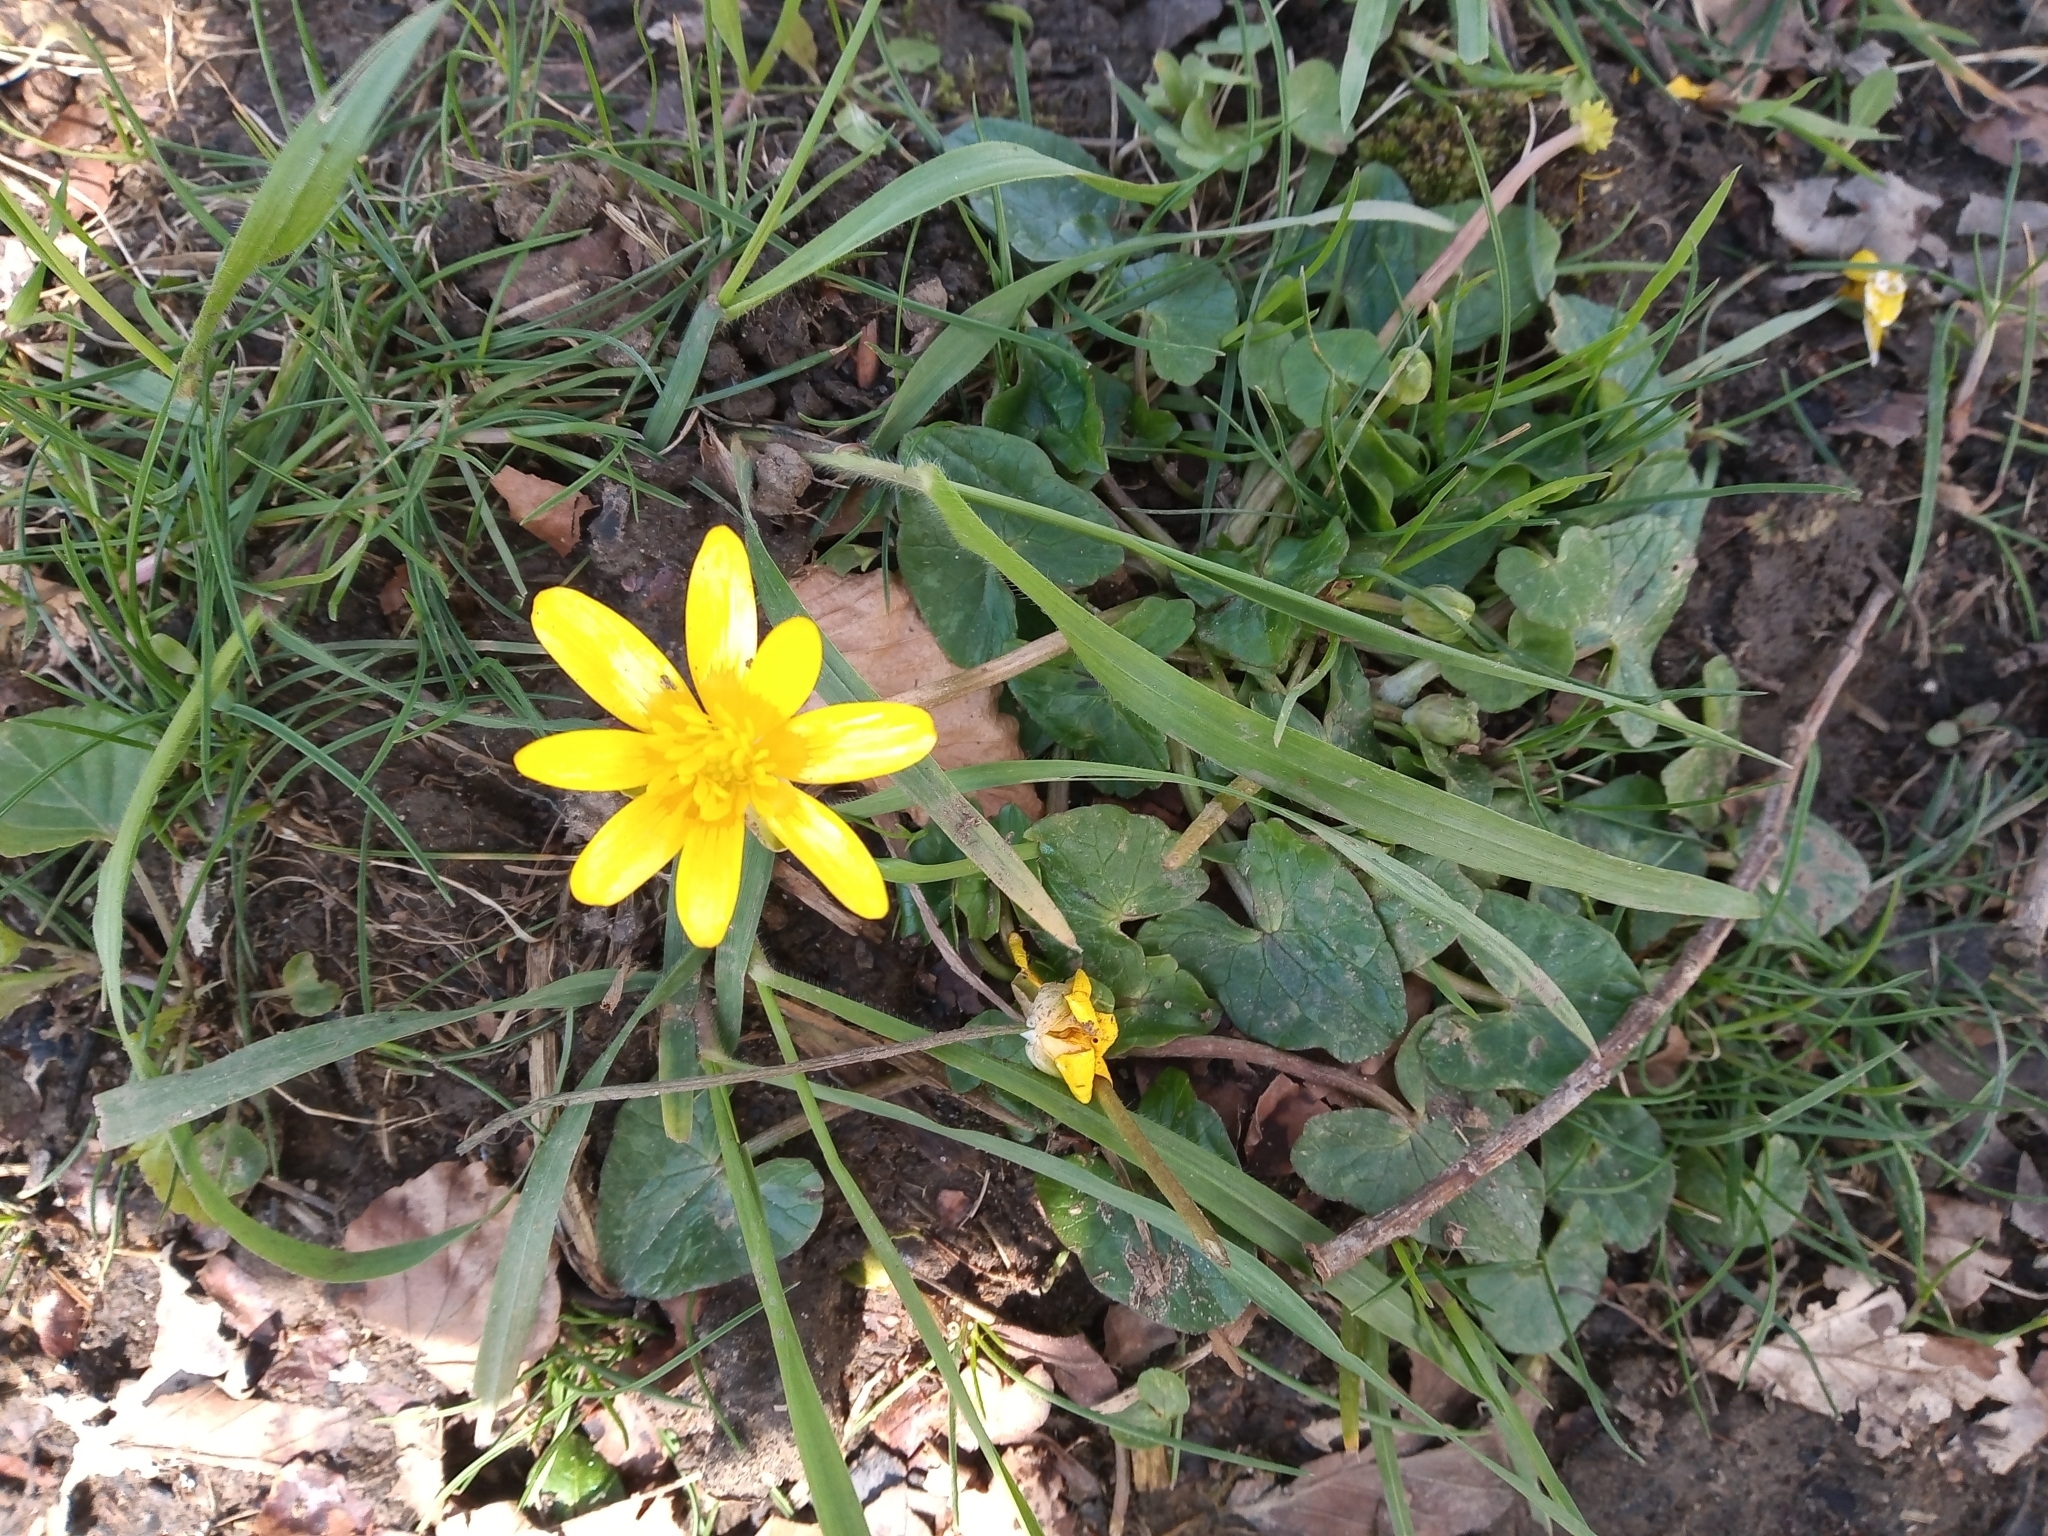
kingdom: Plantae
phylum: Tracheophyta
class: Magnoliopsida
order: Ranunculales
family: Ranunculaceae
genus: Ficaria
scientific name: Ficaria verna
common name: Lesser celandine
